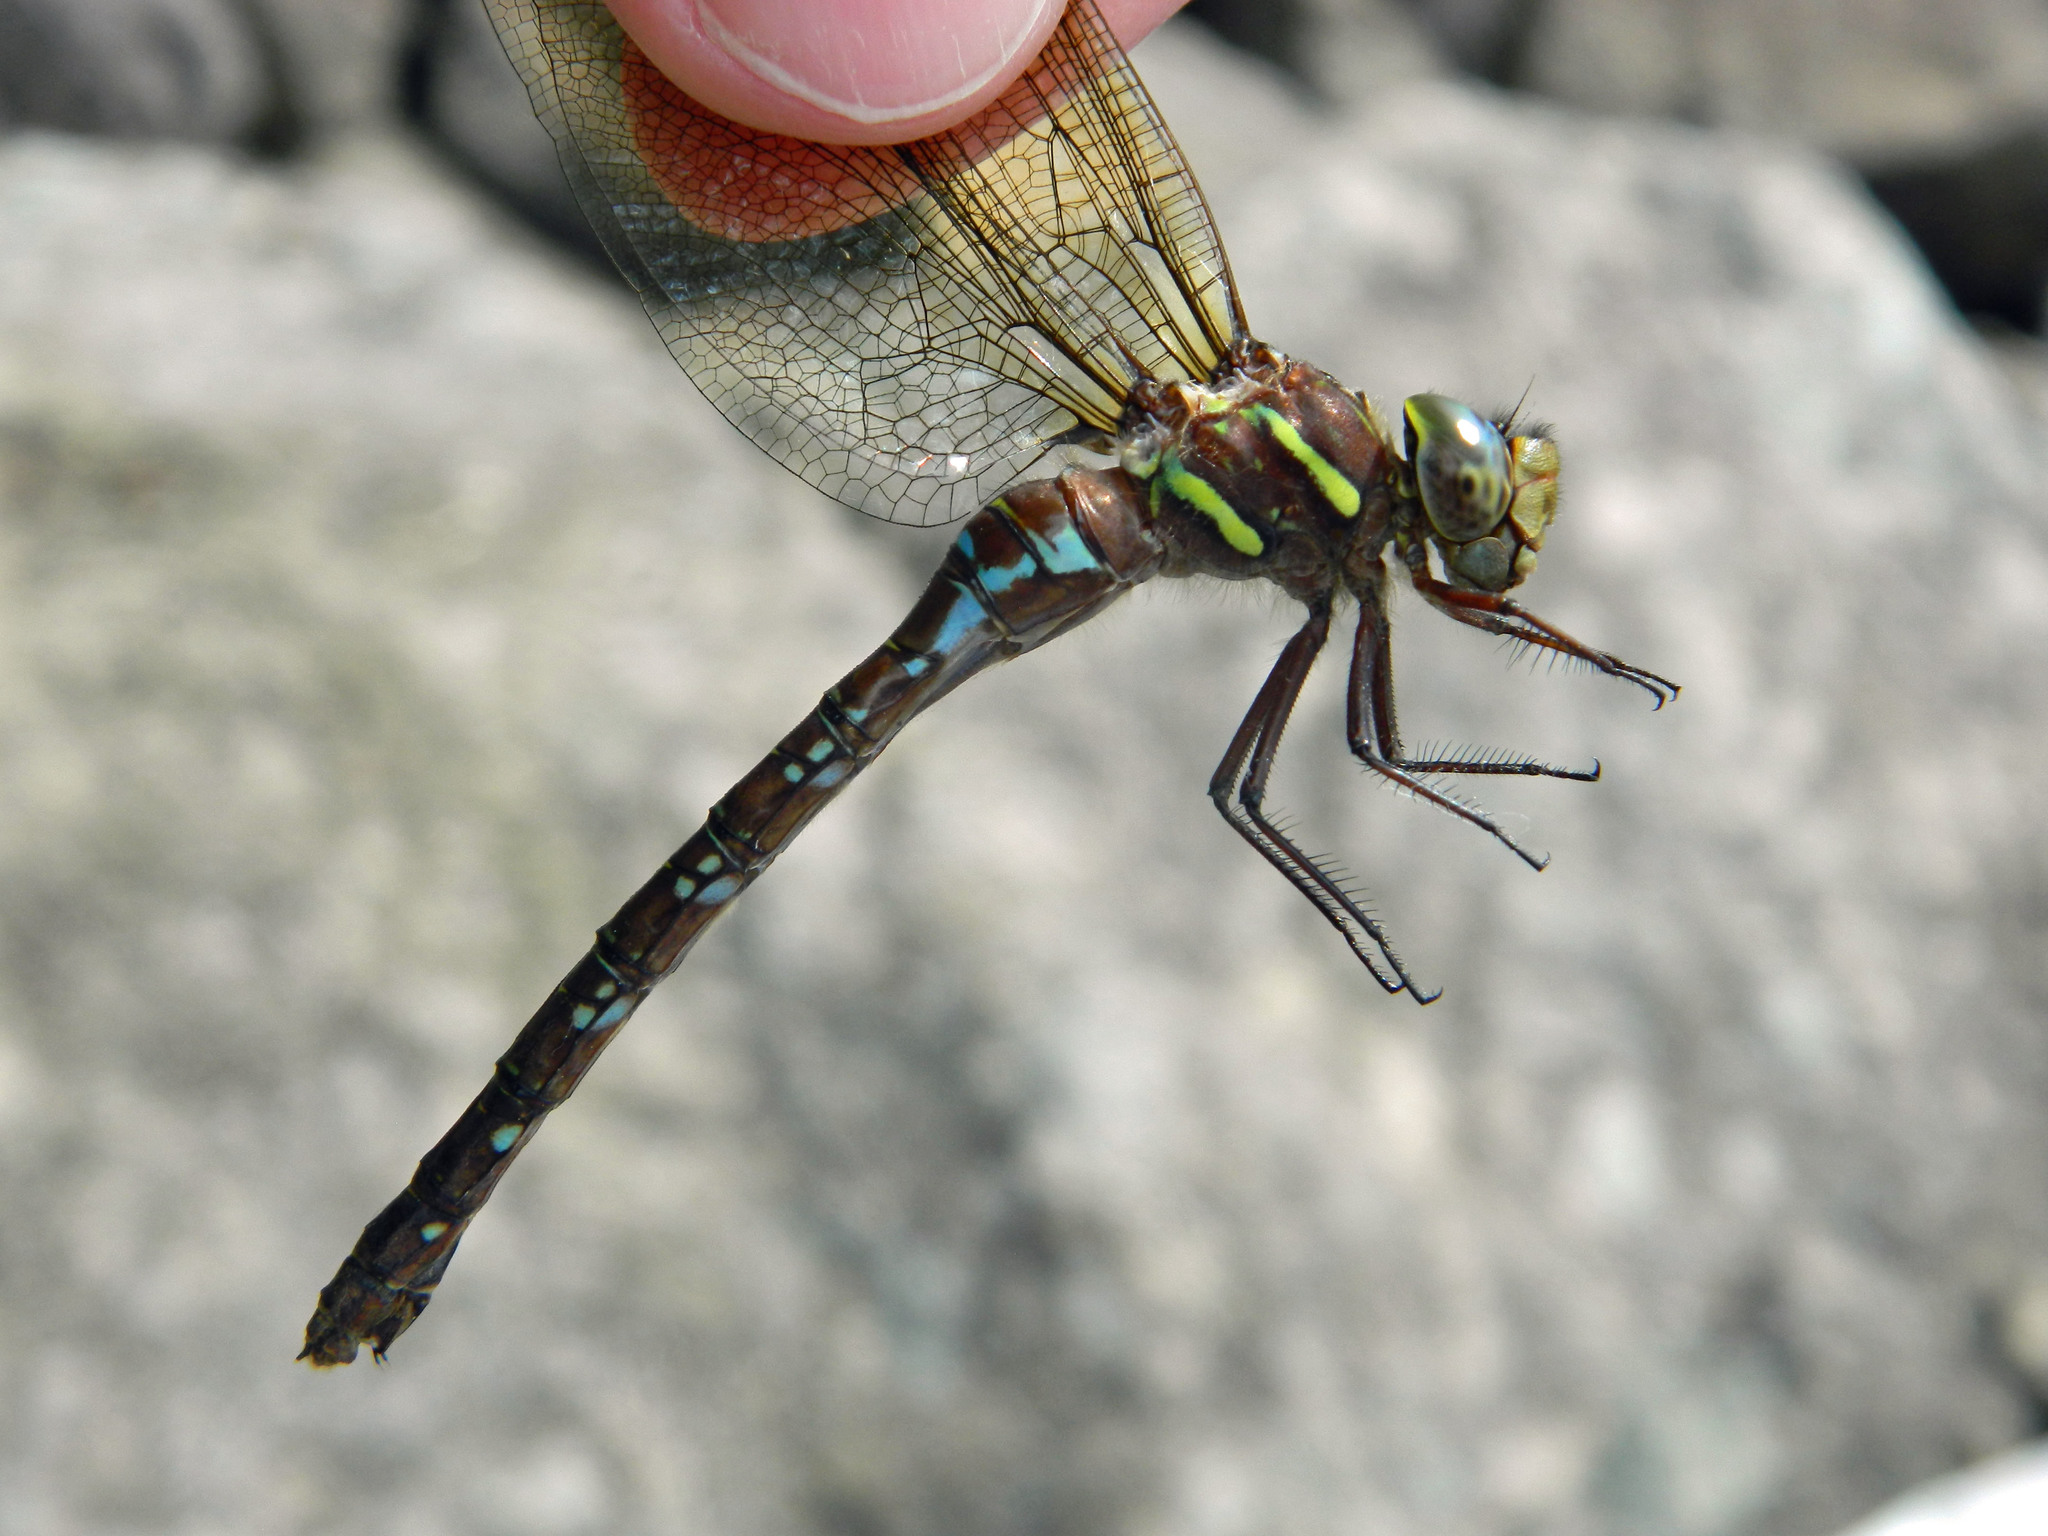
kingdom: Animalia
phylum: Arthropoda
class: Insecta
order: Odonata
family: Aeshnidae
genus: Aeshna
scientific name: Aeshna umbrosa
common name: Shadow darner
